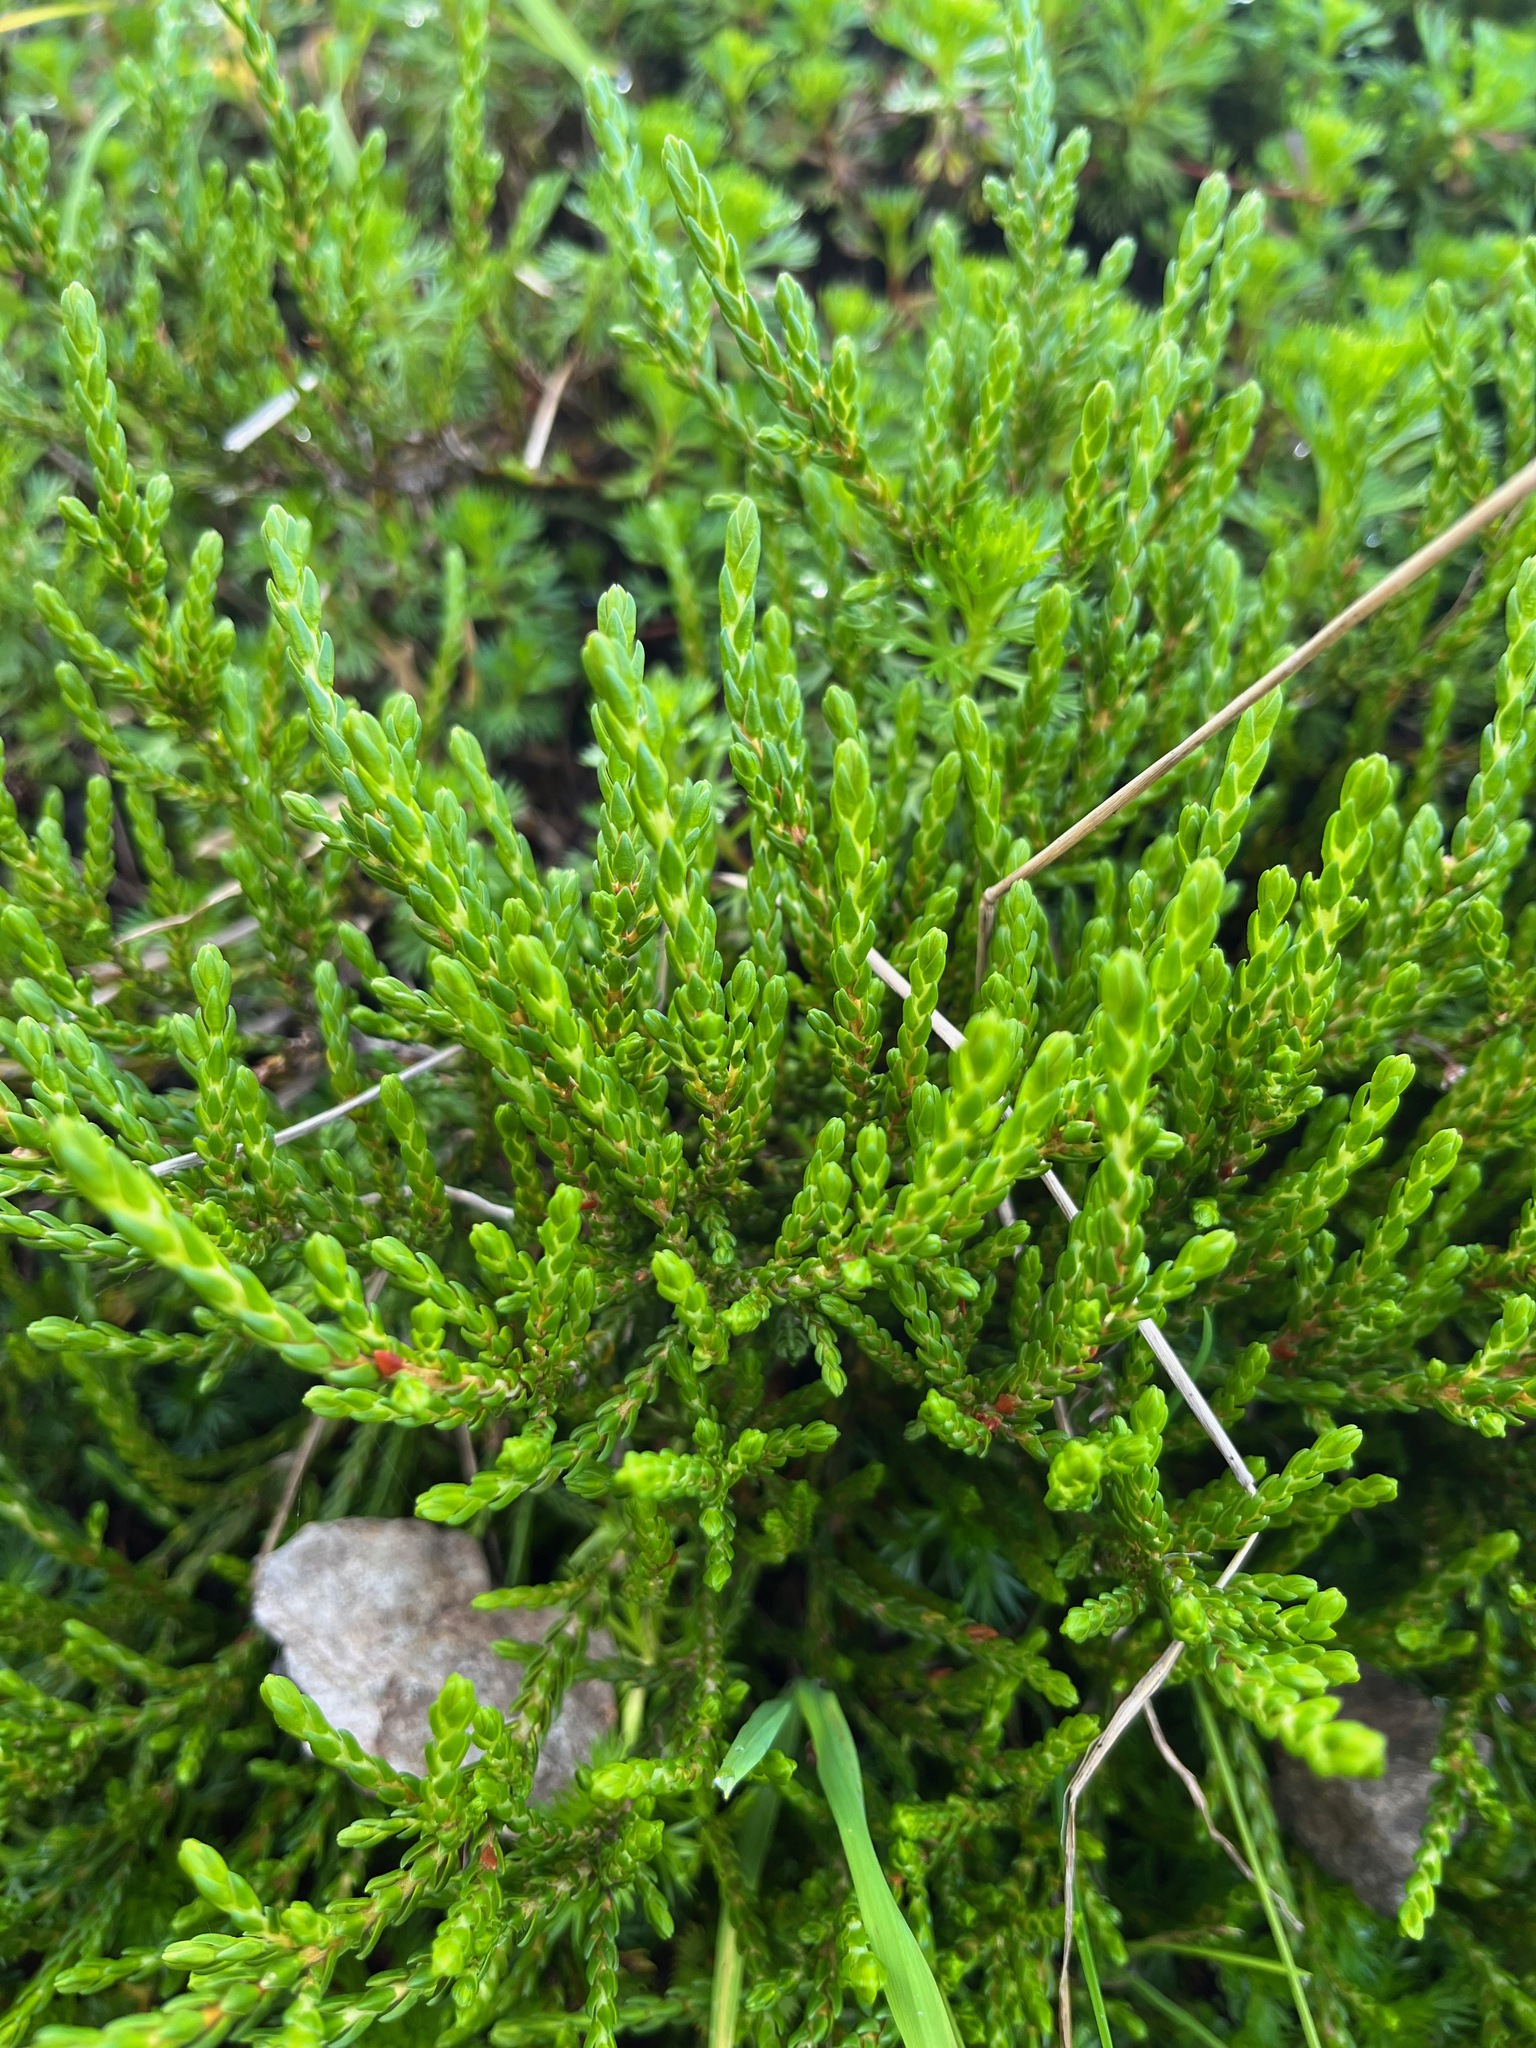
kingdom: Plantae
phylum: Tracheophyta
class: Magnoliopsida
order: Ericales
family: Ericaceae
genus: Cassiope
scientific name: Cassiope mertensiana
